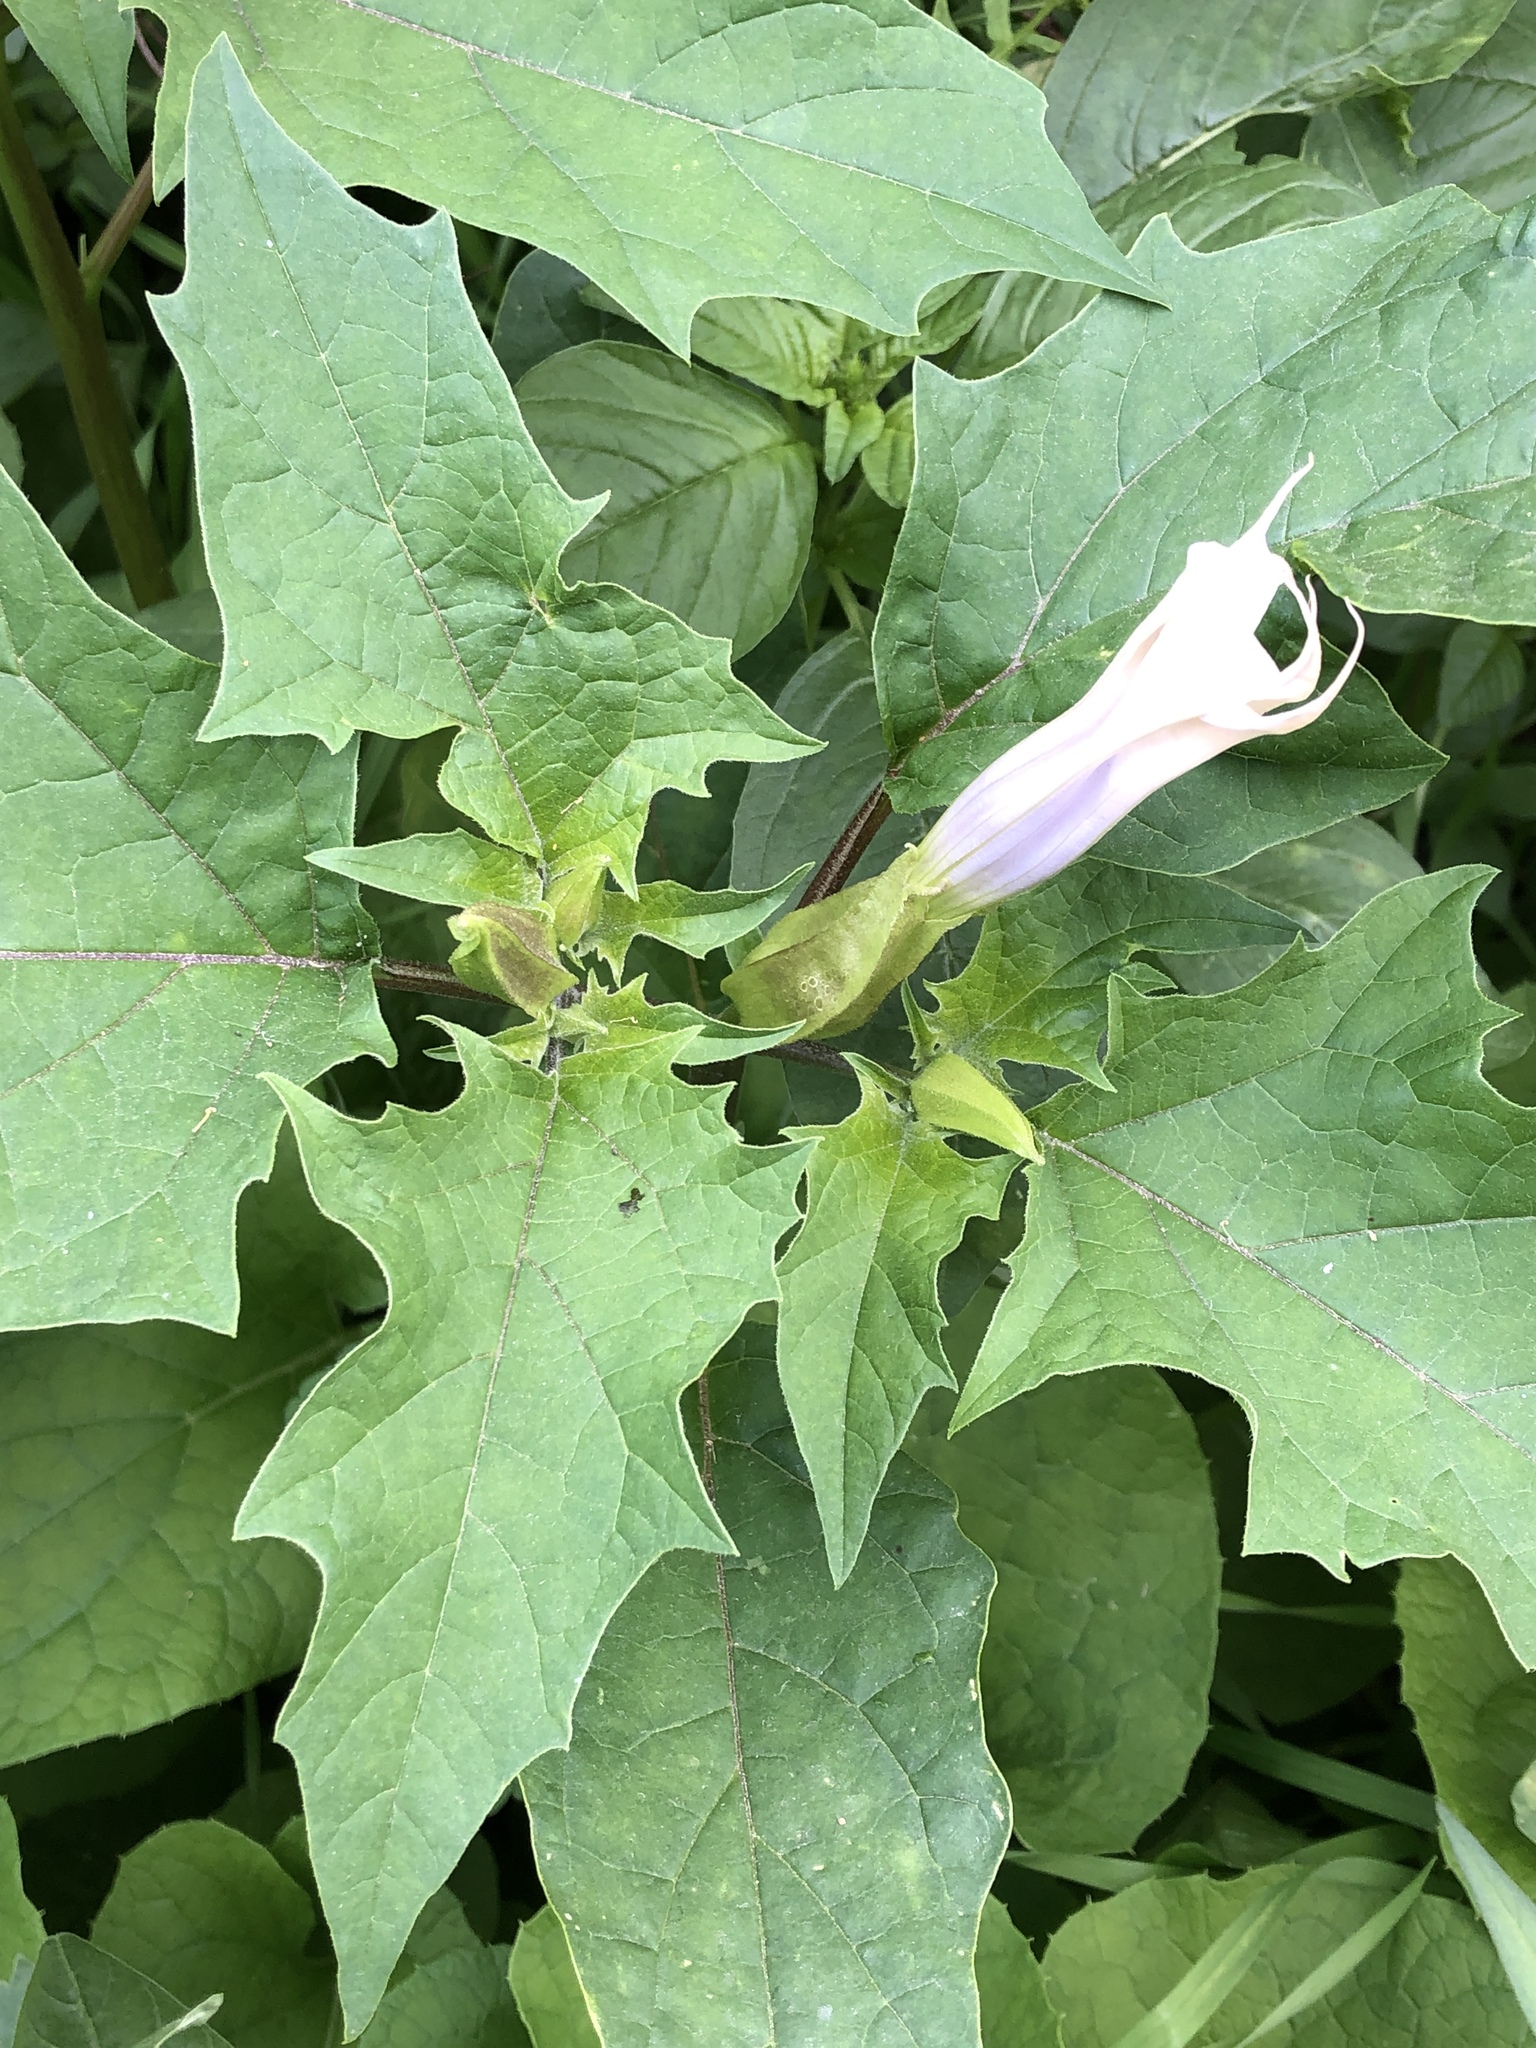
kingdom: Plantae
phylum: Tracheophyta
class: Magnoliopsida
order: Solanales
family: Solanaceae
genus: Datura
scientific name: Datura stramonium
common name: Thorn-apple
